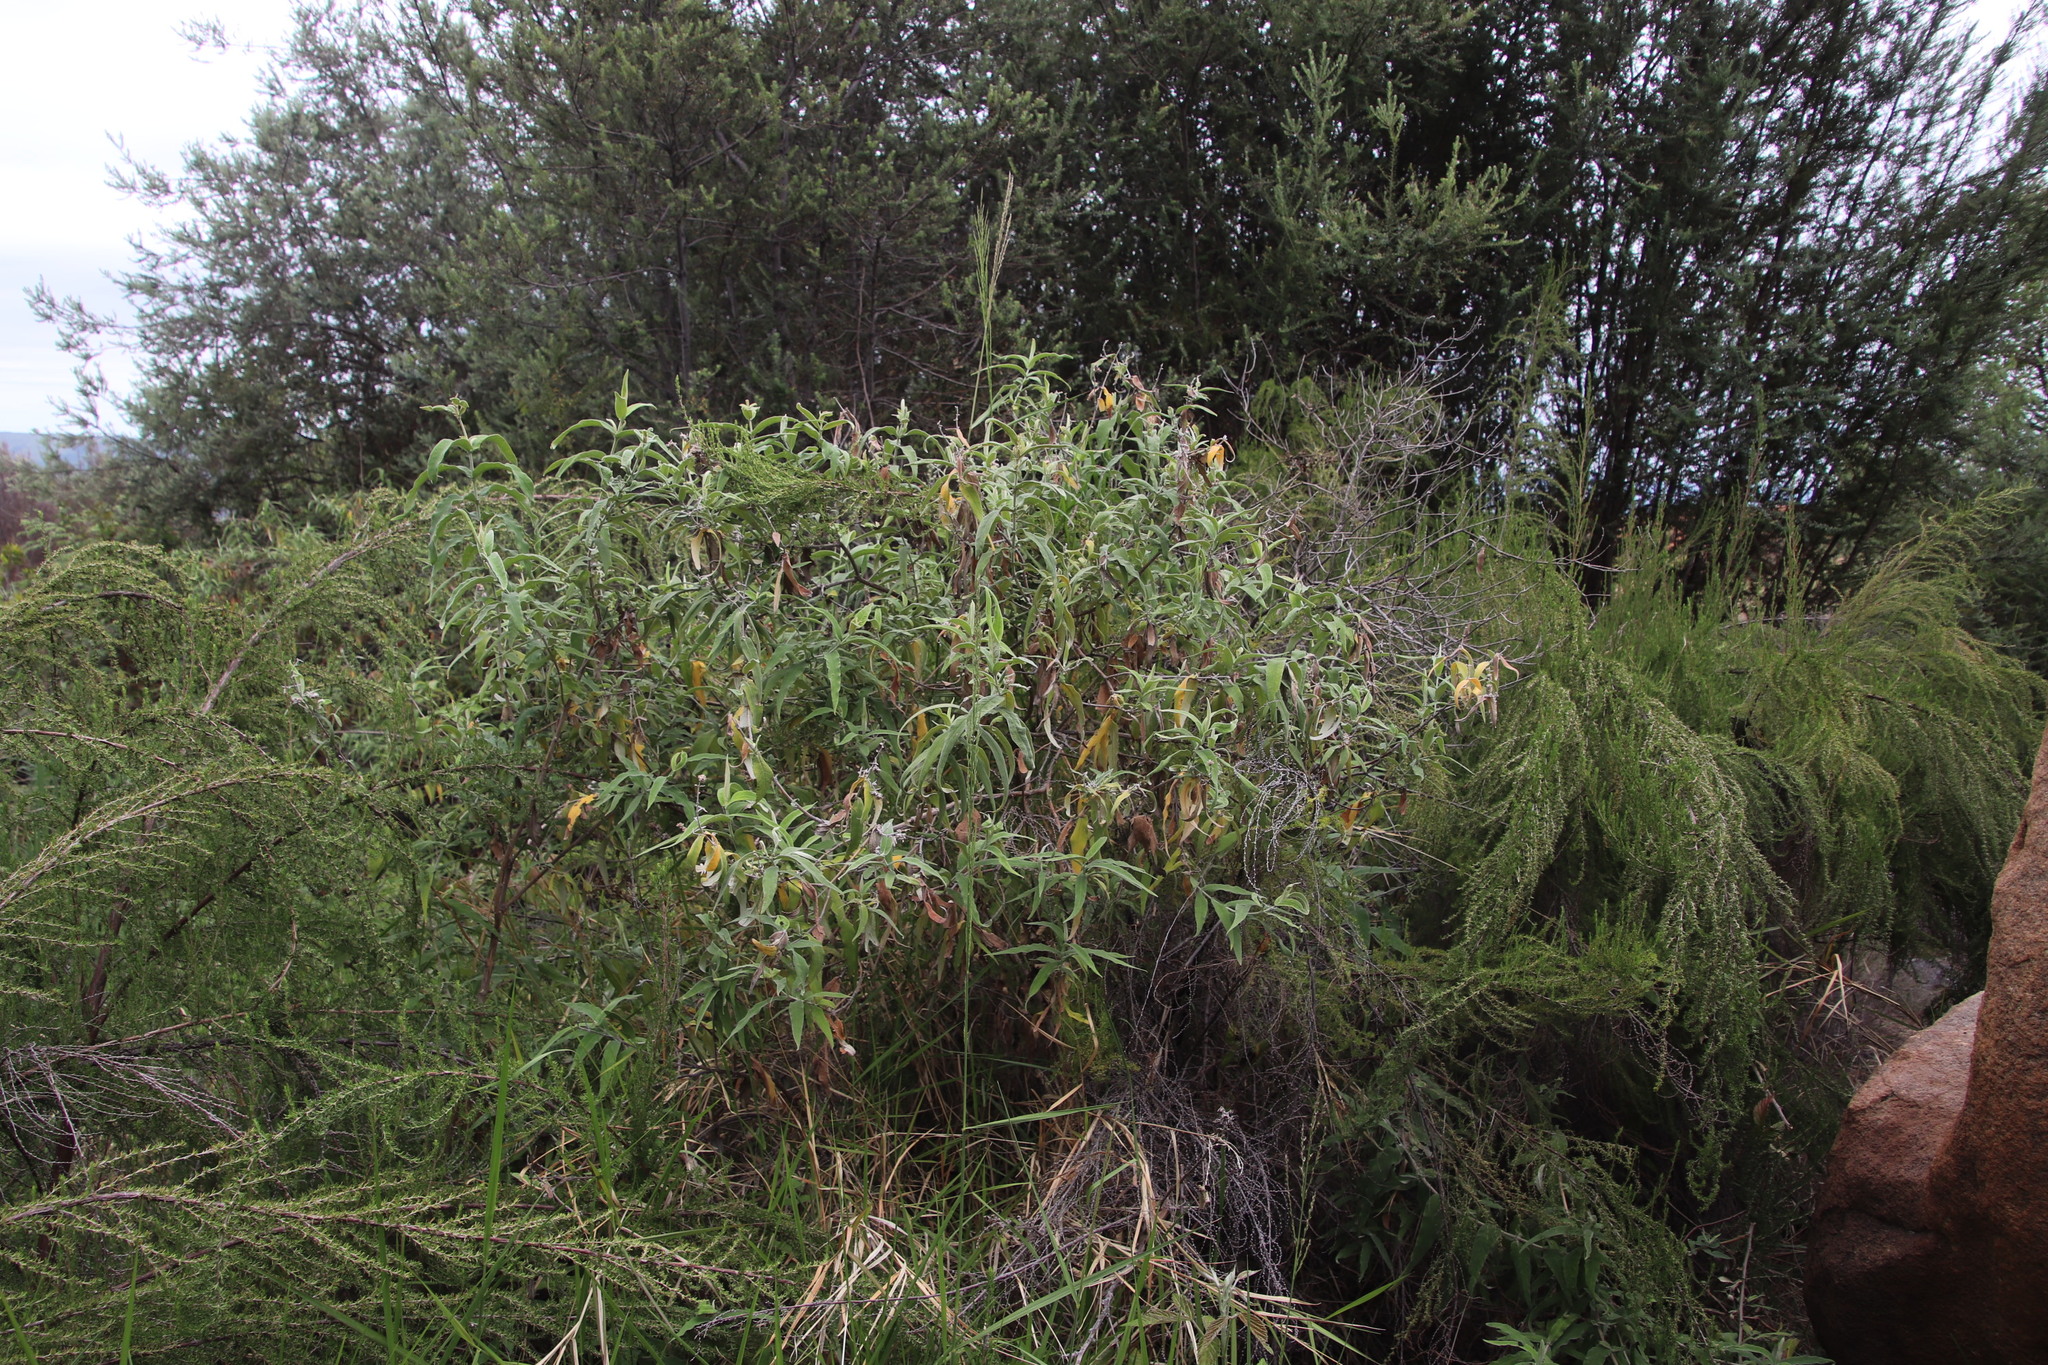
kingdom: Plantae
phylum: Tracheophyta
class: Magnoliopsida
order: Lamiales
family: Scrophulariaceae
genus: Buddleja
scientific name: Buddleja salviifolia
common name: Sagewood
